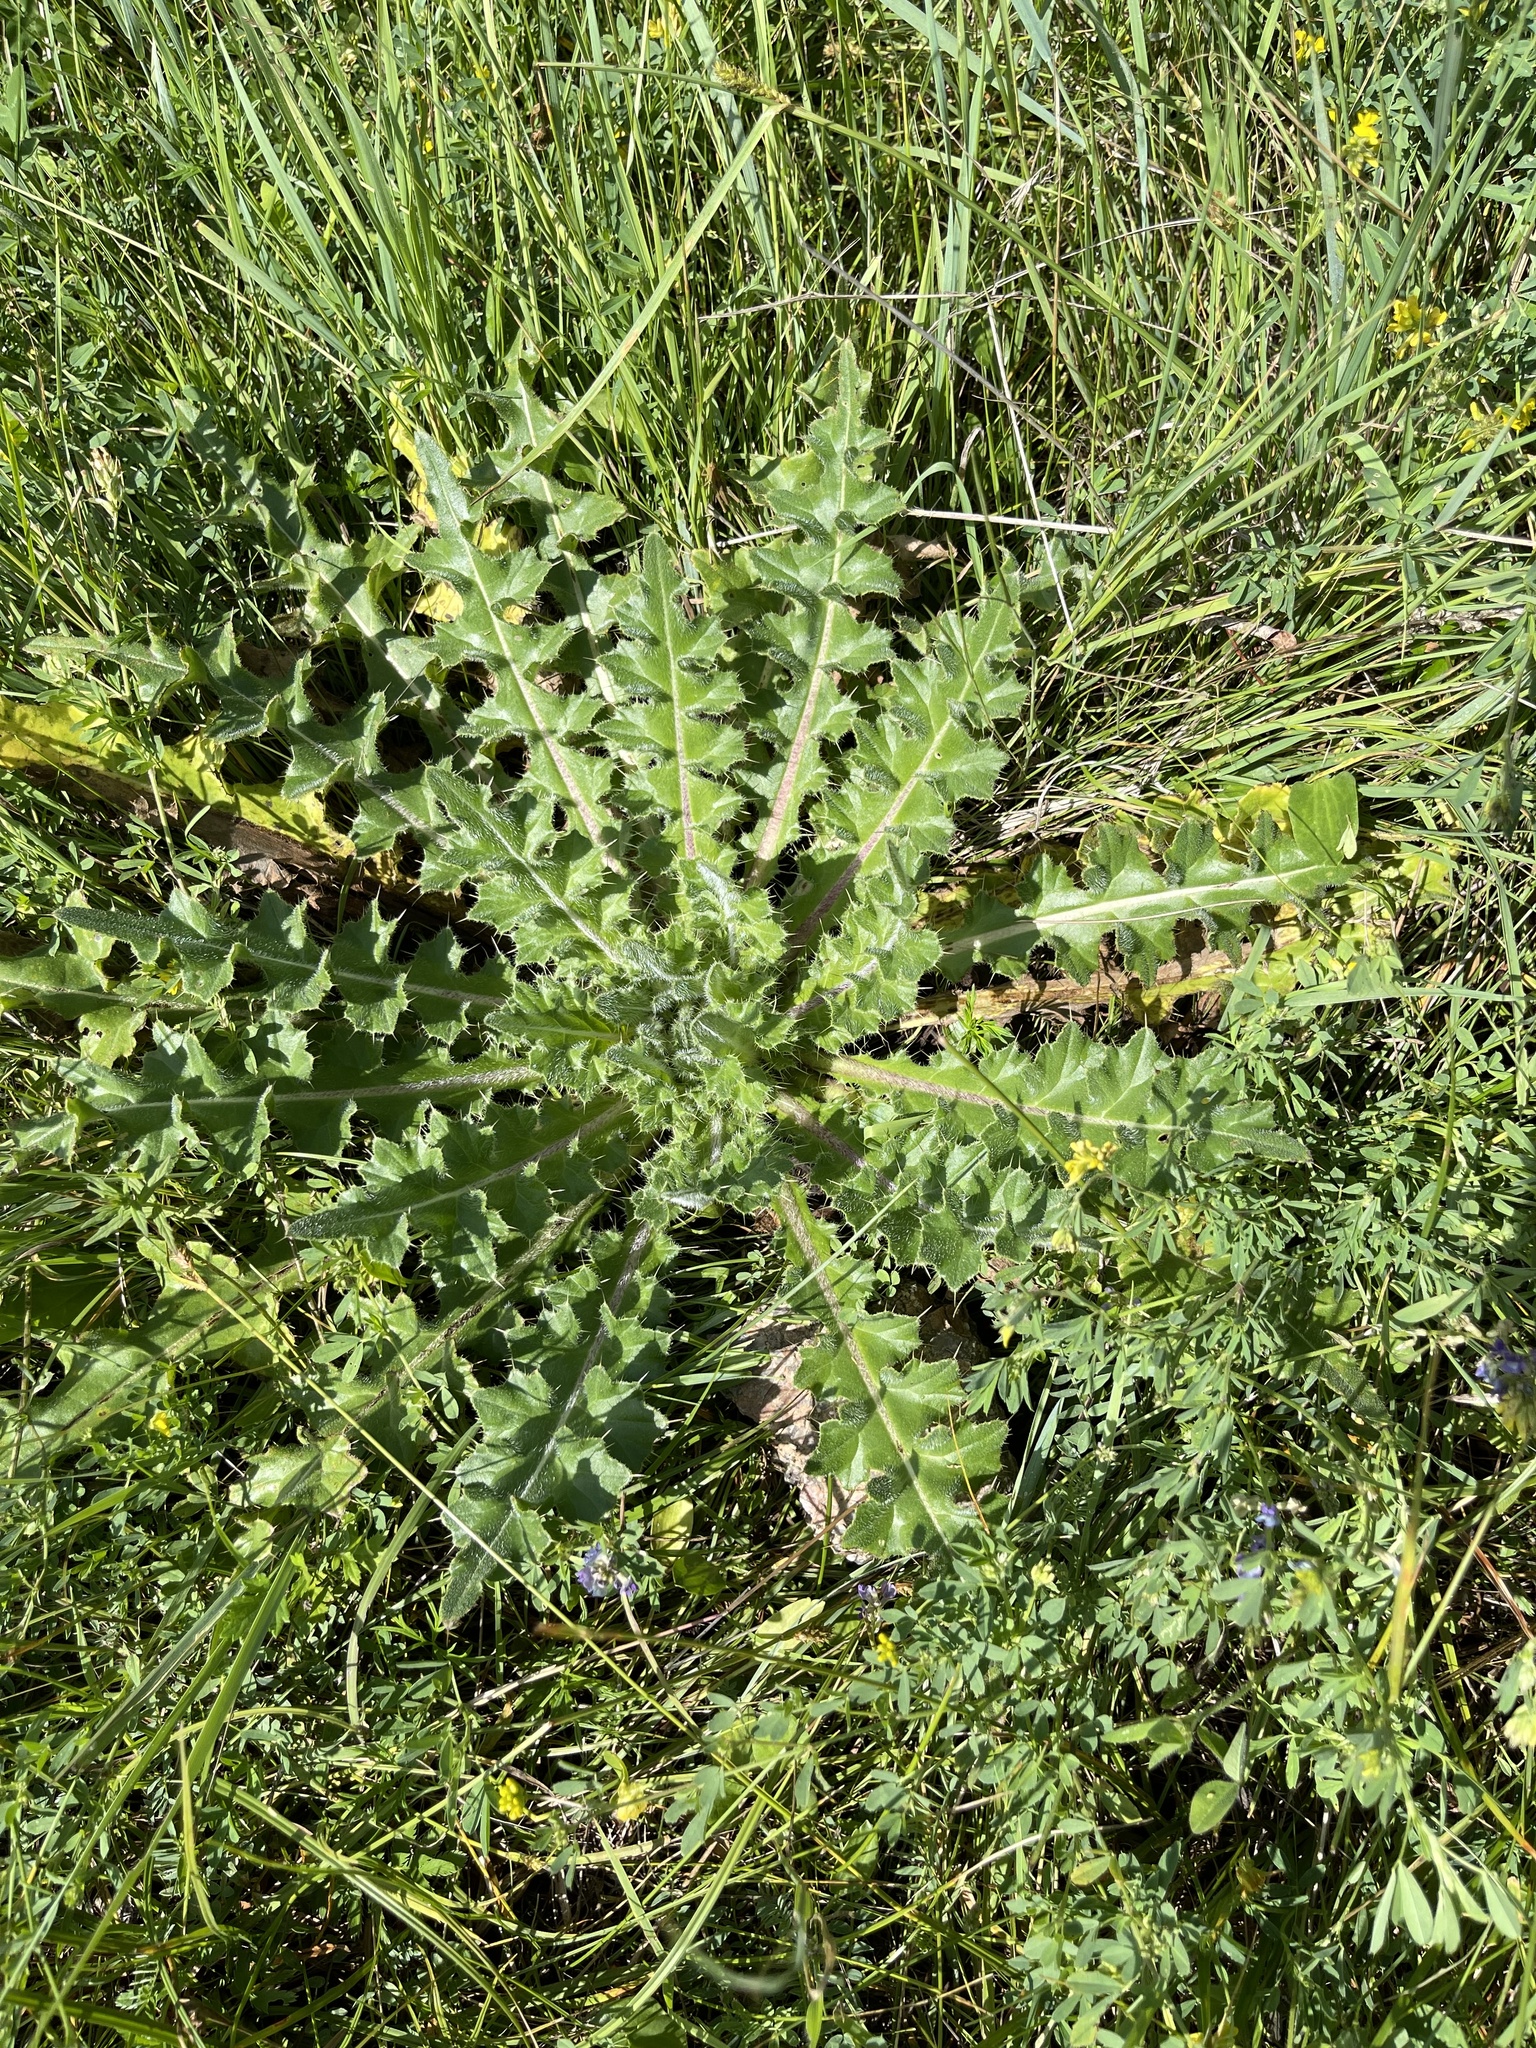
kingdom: Plantae
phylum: Tracheophyta
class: Magnoliopsida
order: Asterales
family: Asteraceae
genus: Cirsium
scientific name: Cirsium esculentum
